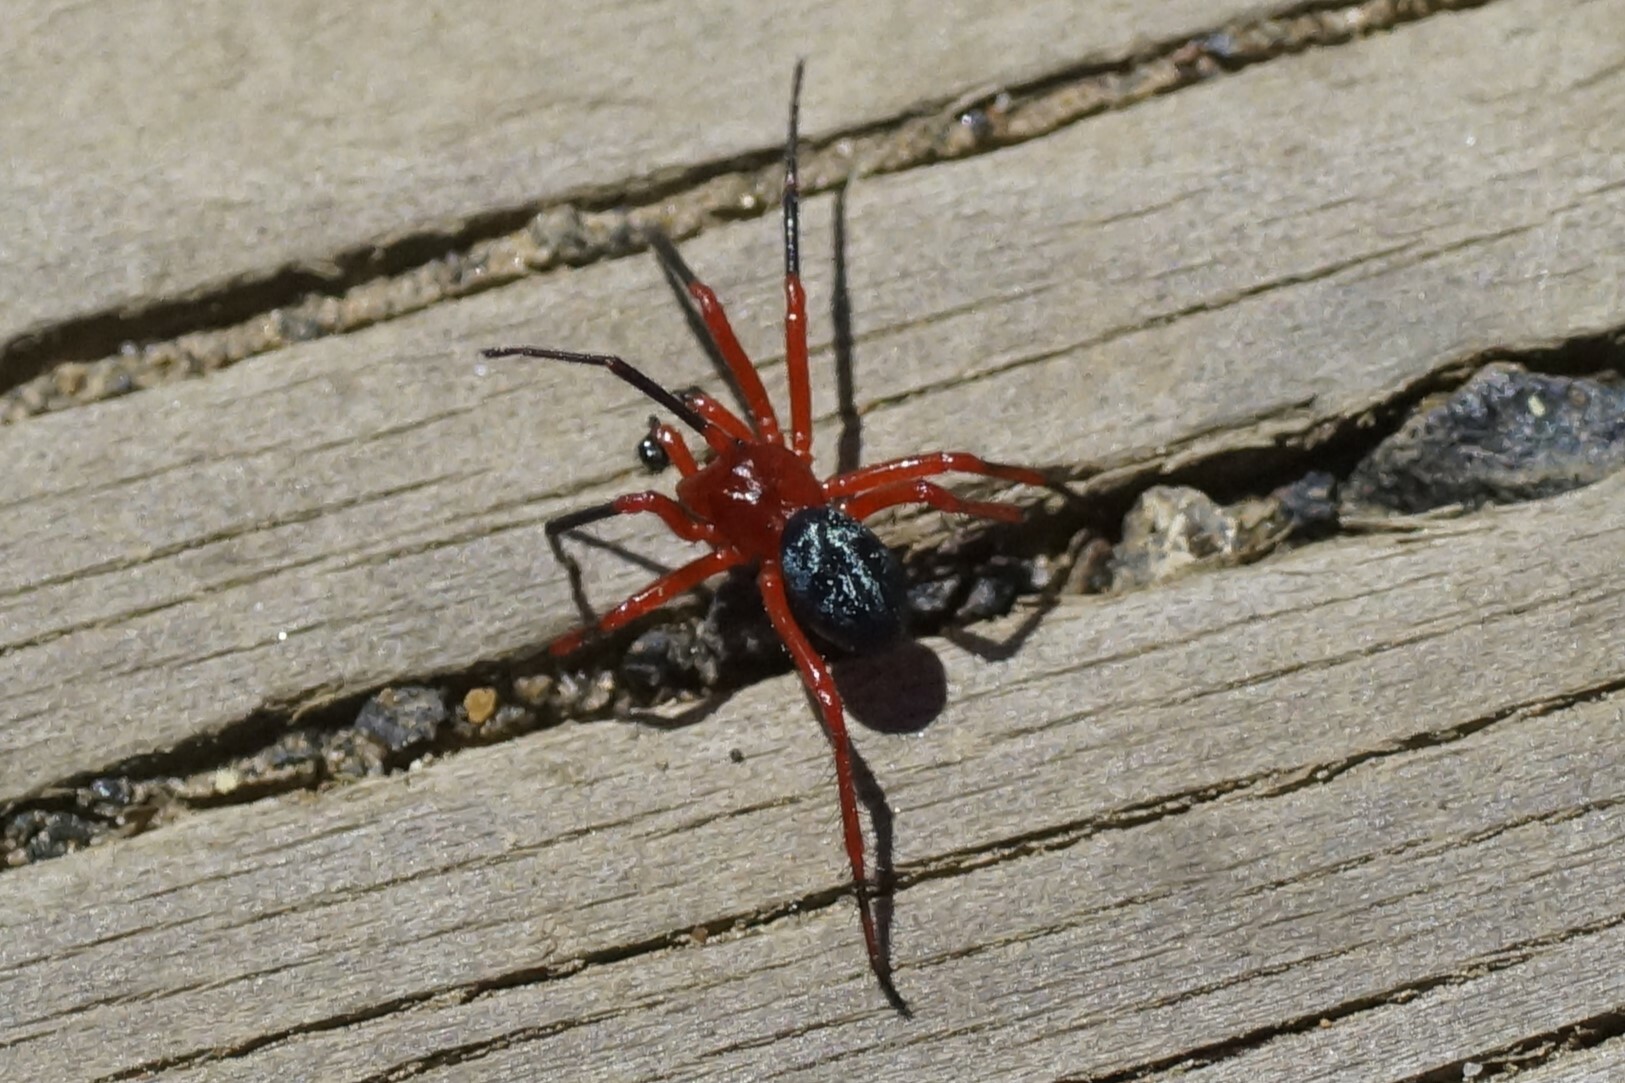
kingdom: Animalia
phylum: Arthropoda
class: Arachnida
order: Araneae
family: Nicodamidae
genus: Nicodamus
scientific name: Nicodamus peregrinus
